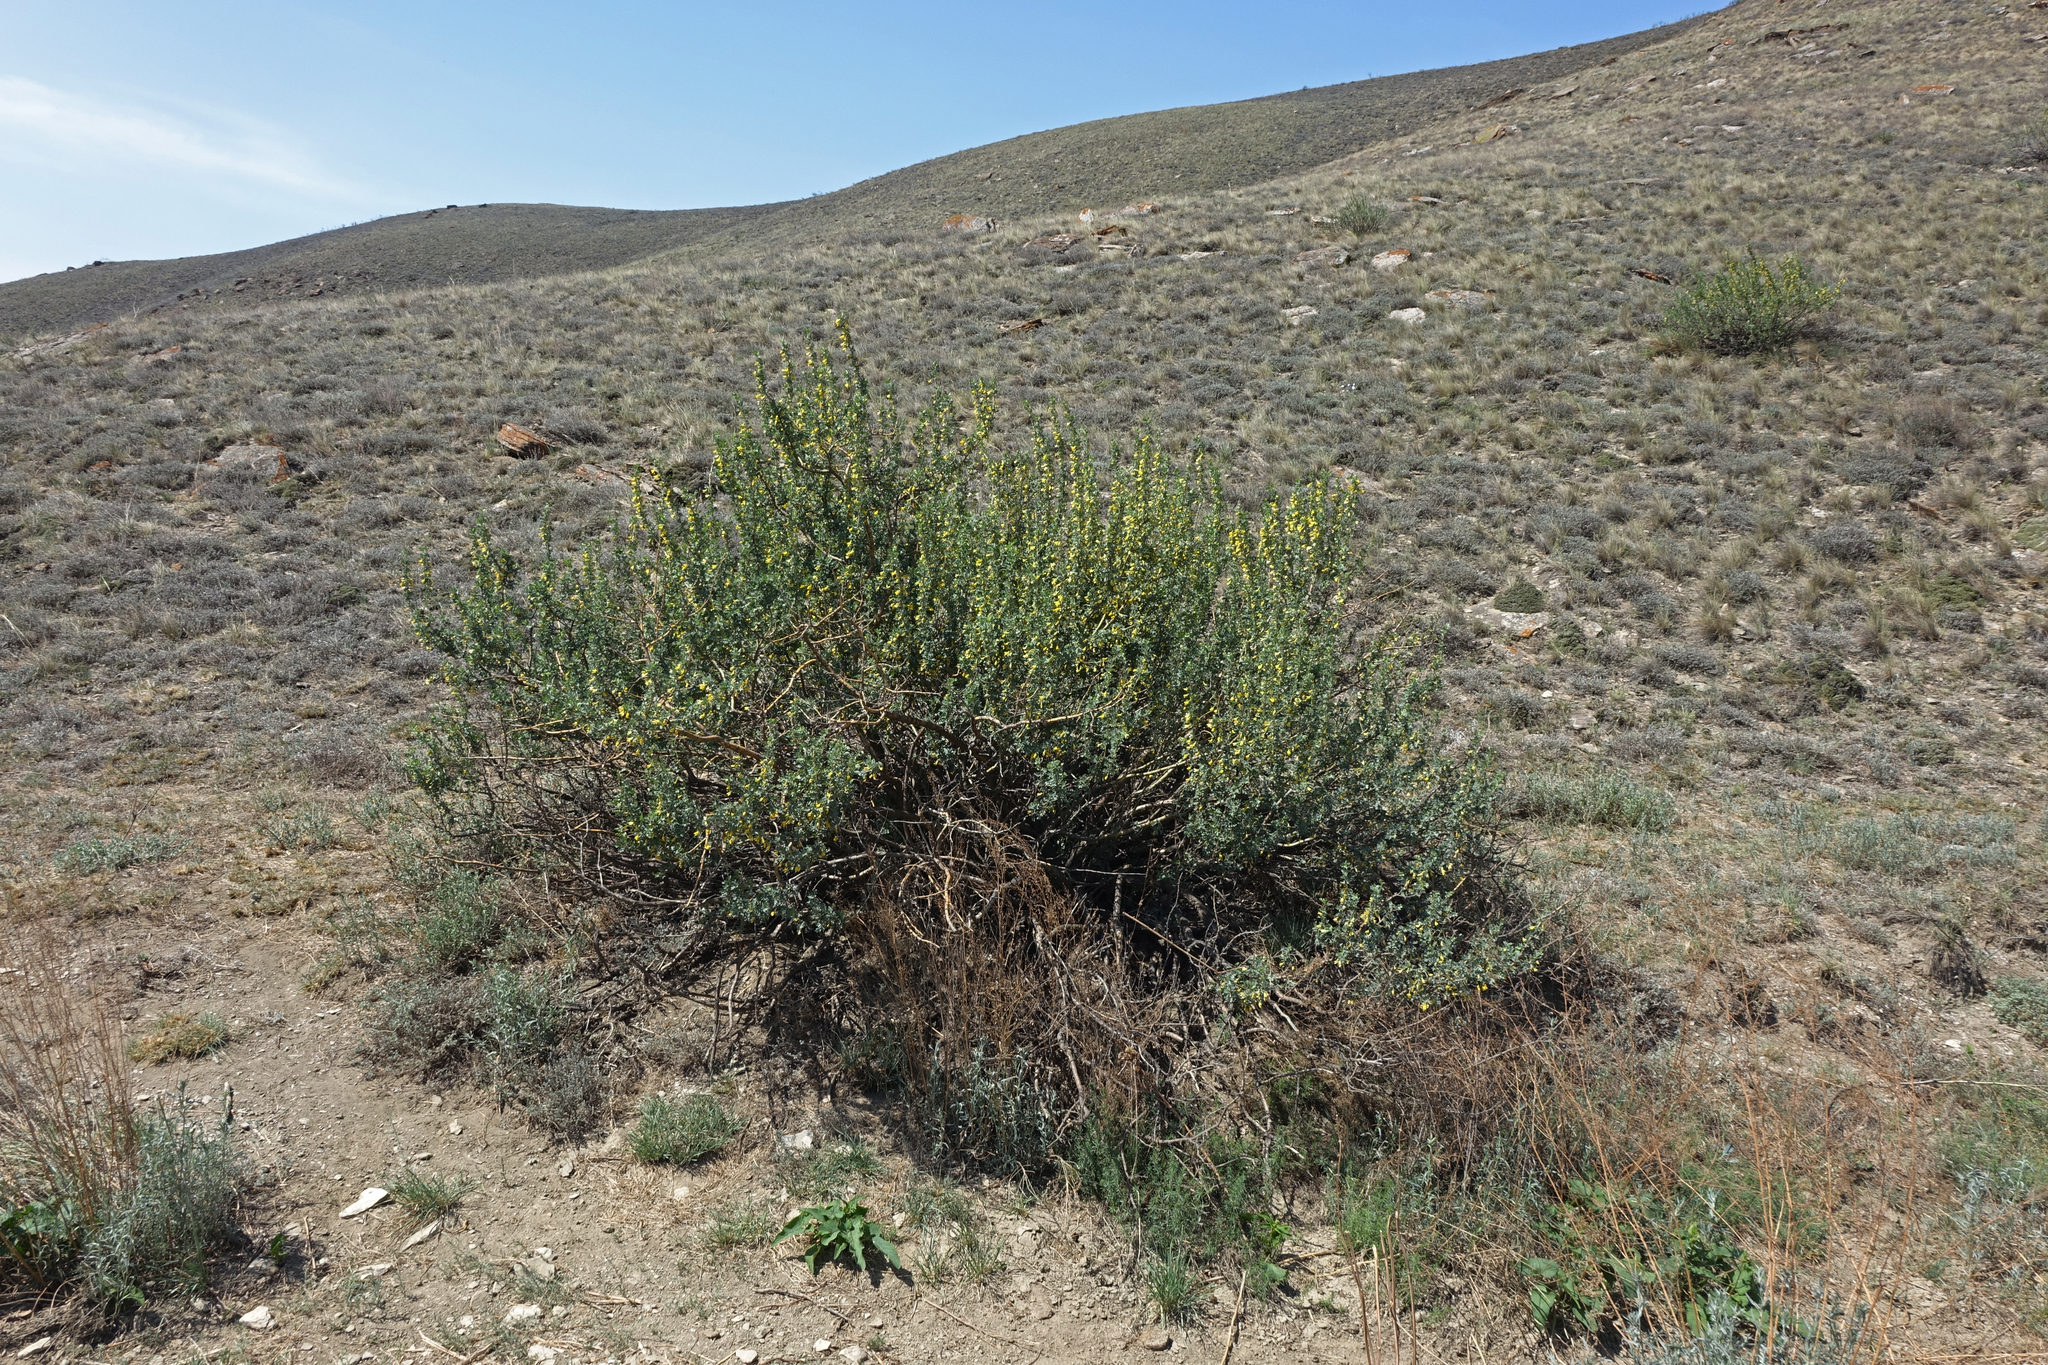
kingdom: Plantae
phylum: Tracheophyta
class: Magnoliopsida
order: Fabales
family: Fabaceae
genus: Caragana
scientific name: Caragana bungei
